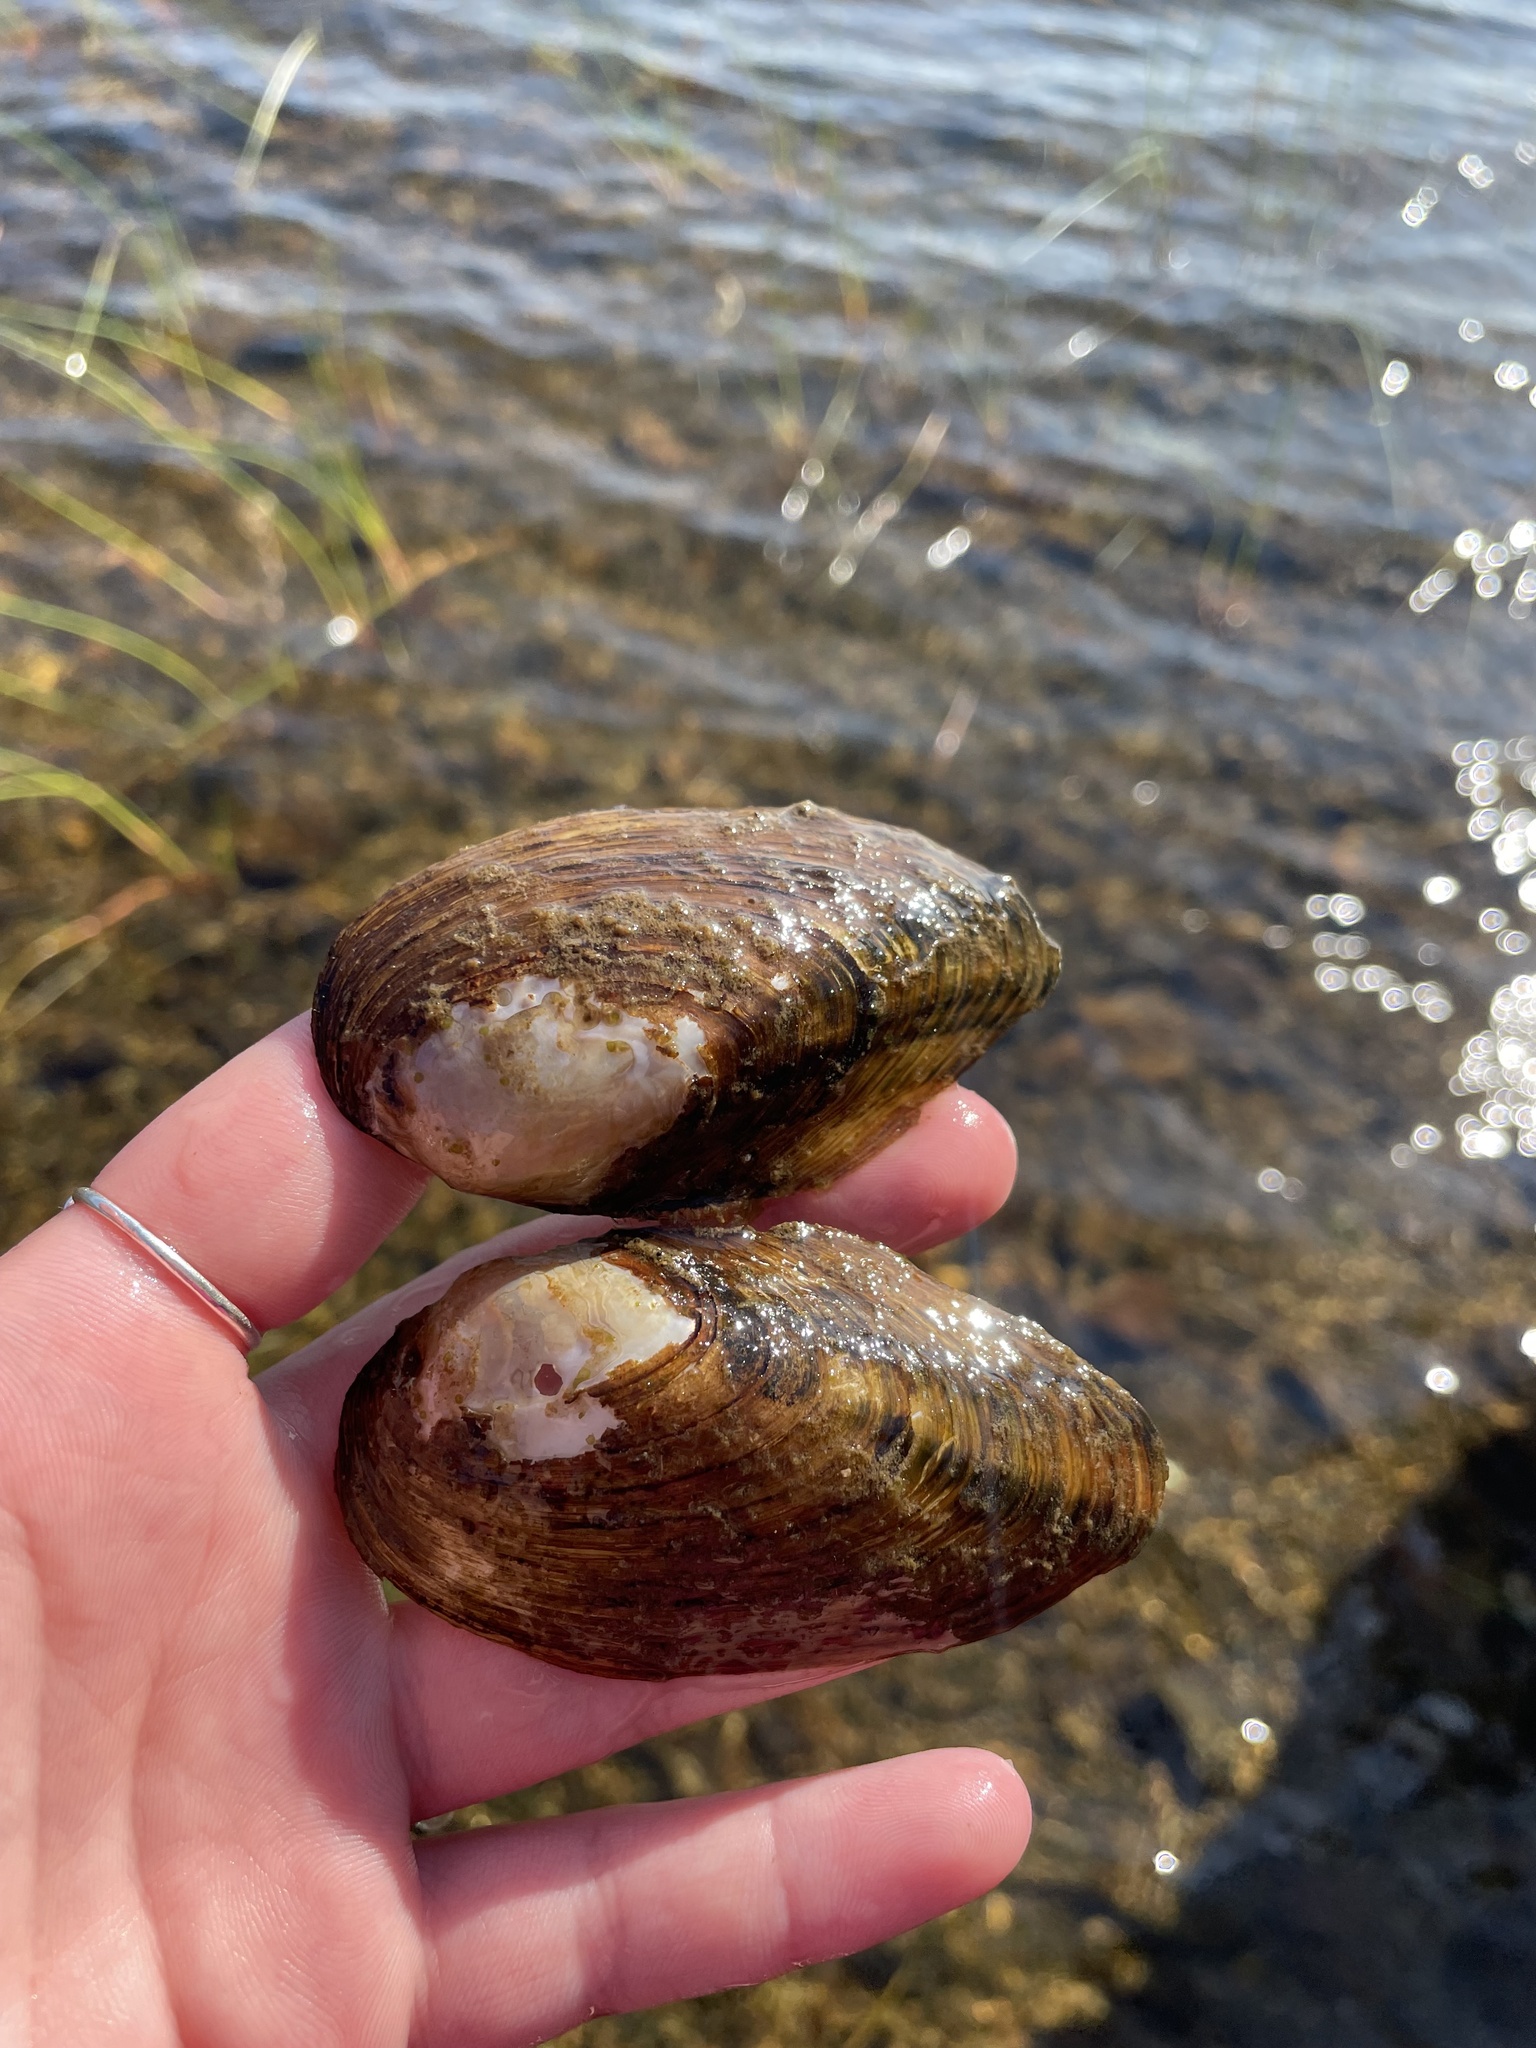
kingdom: Animalia
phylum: Mollusca
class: Bivalvia
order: Unionida
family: Unionidae
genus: Pyganodon
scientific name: Pyganodon cataracta
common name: Eastern floater
